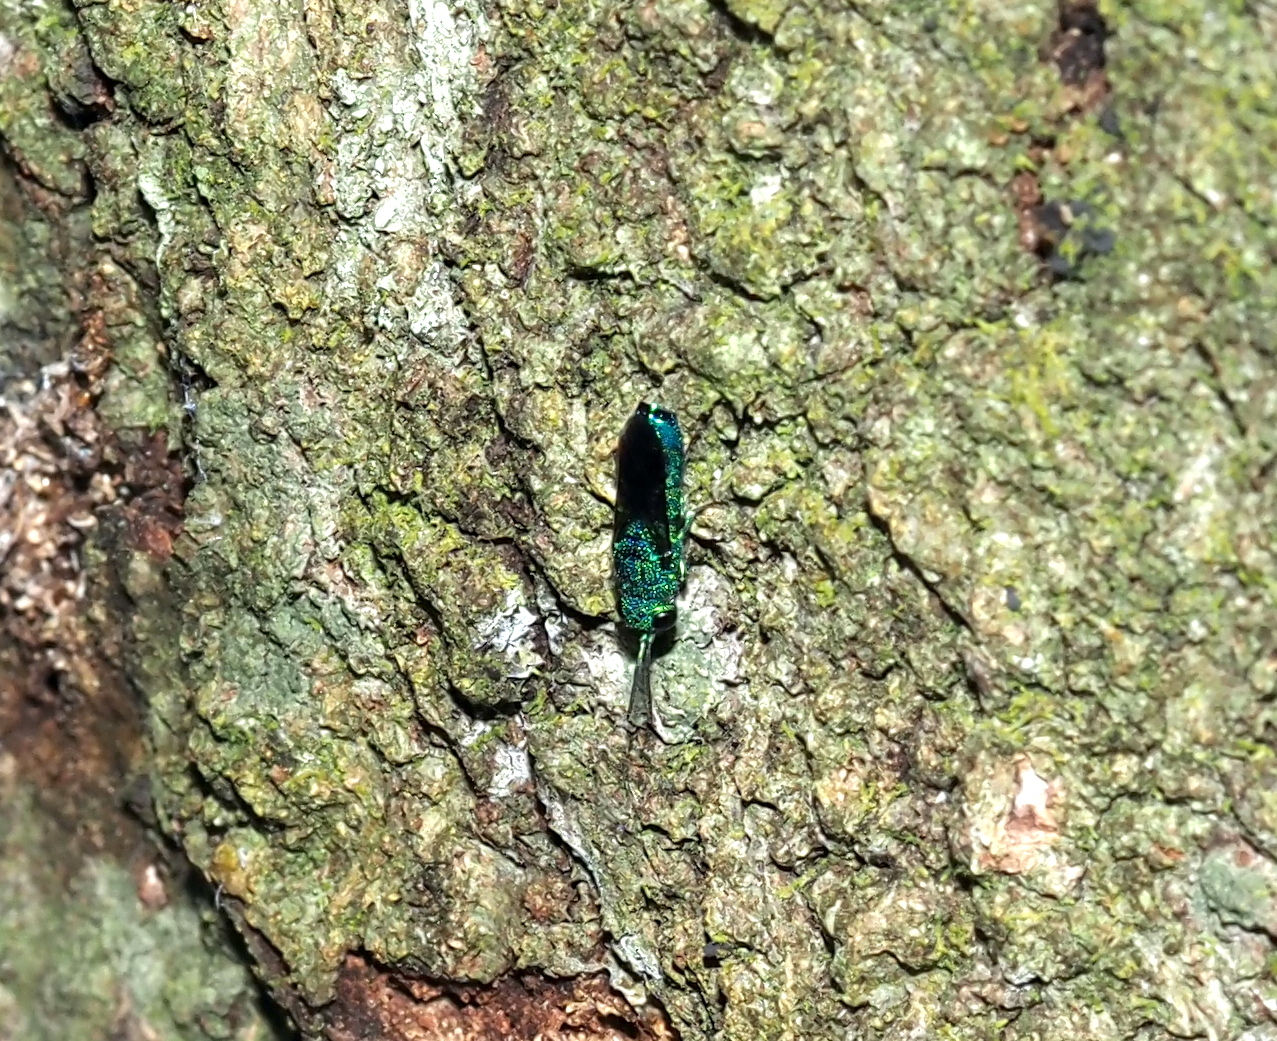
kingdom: Animalia
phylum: Arthropoda
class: Insecta
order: Hymenoptera
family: Chrysididae
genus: Caenochrysis
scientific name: Caenochrysis
